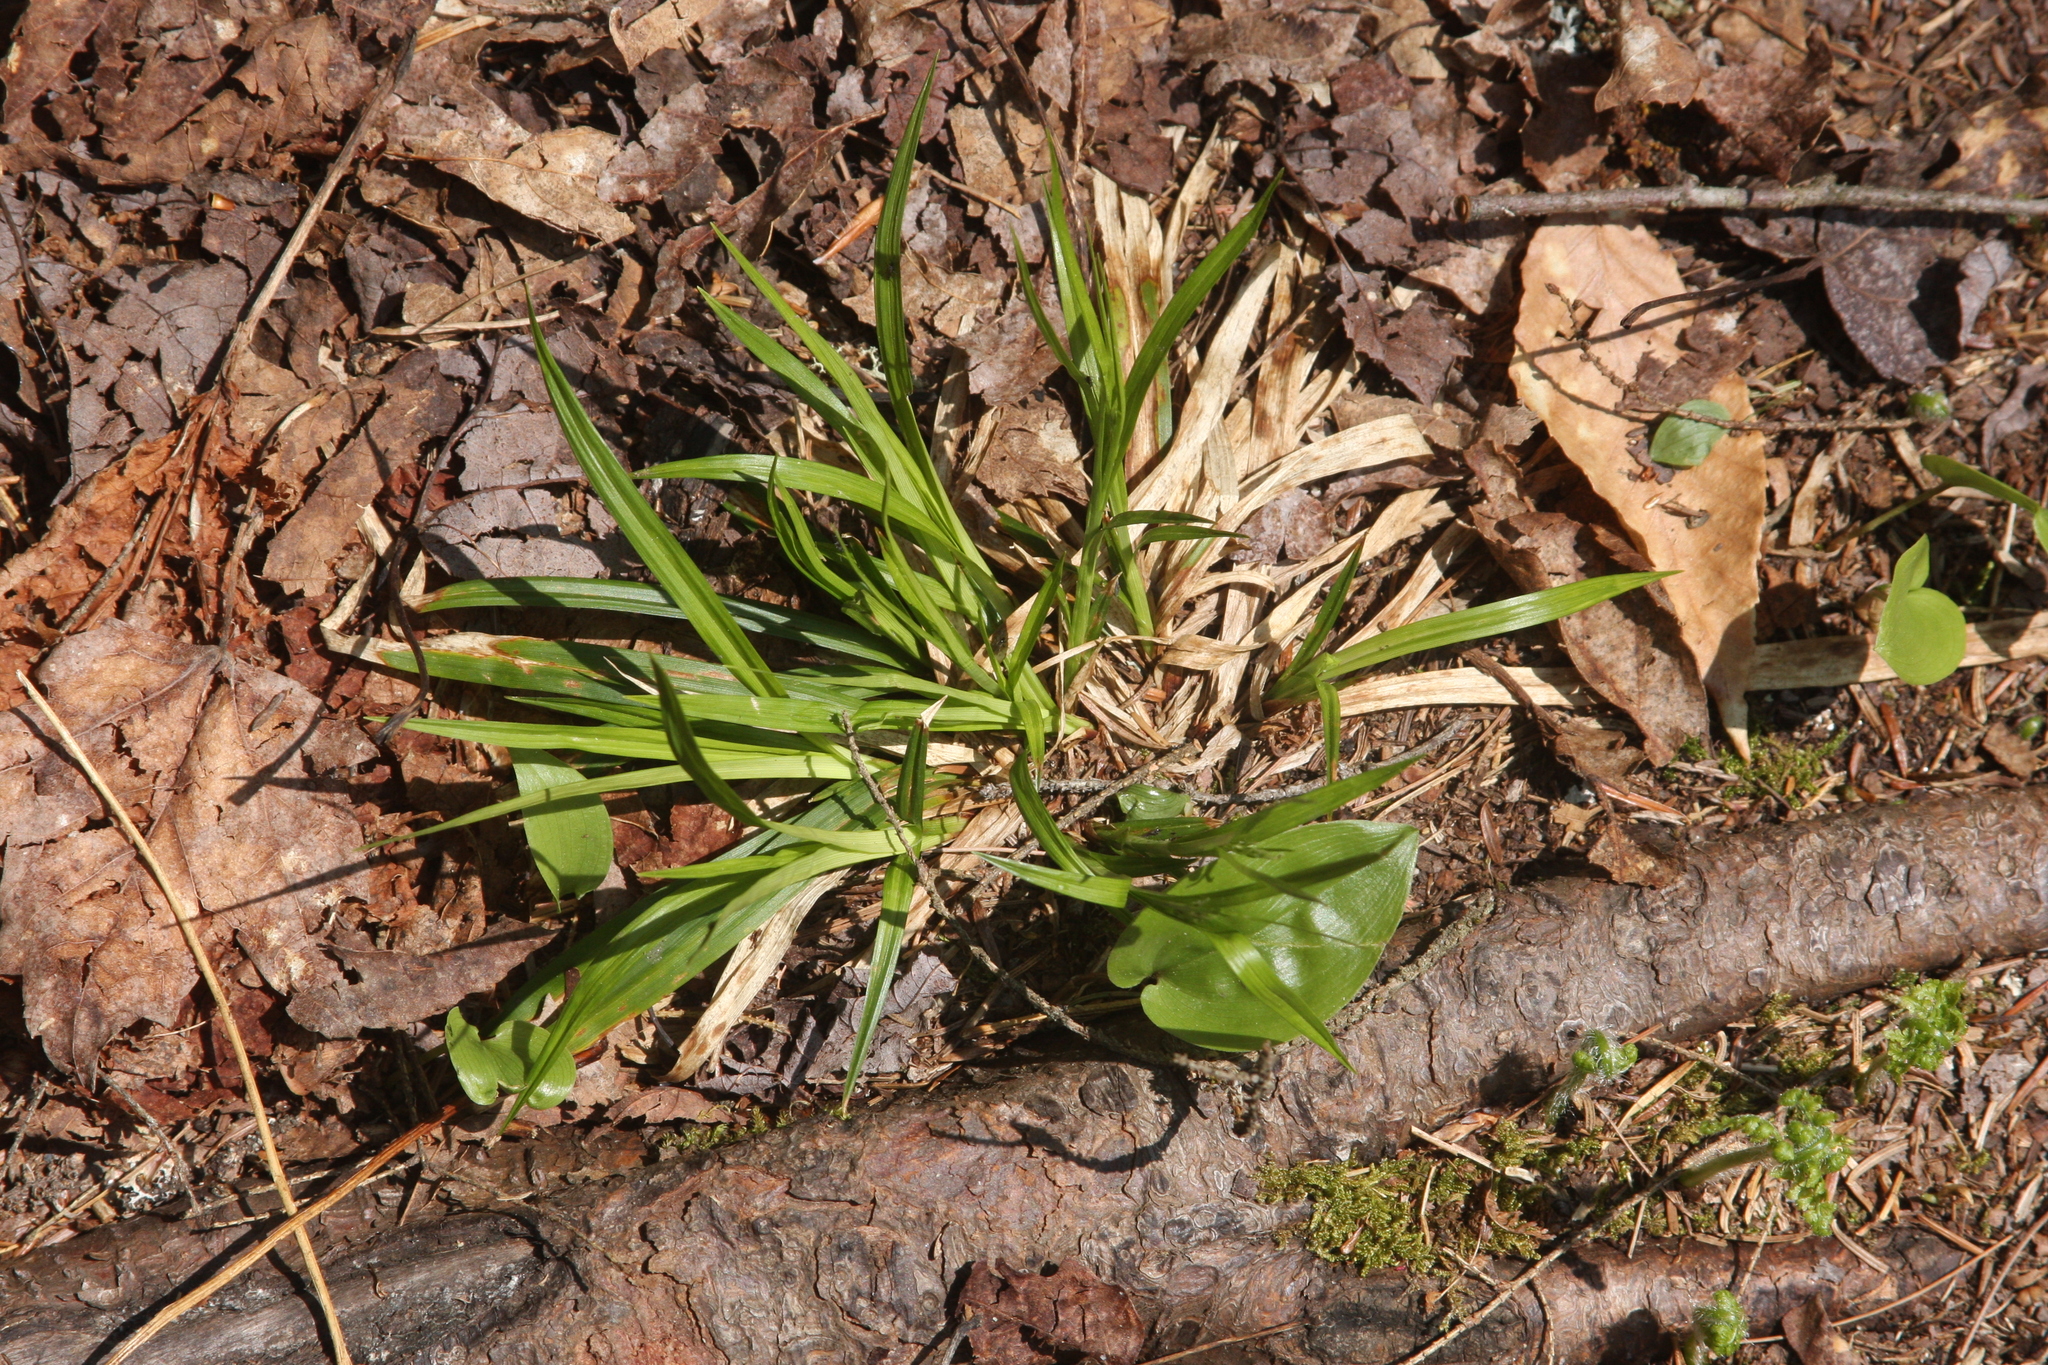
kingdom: Plantae
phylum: Tracheophyta
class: Liliopsida
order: Asparagales
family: Asparagaceae
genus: Maianthemum
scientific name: Maianthemum canadense
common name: False lily-of-the-valley
